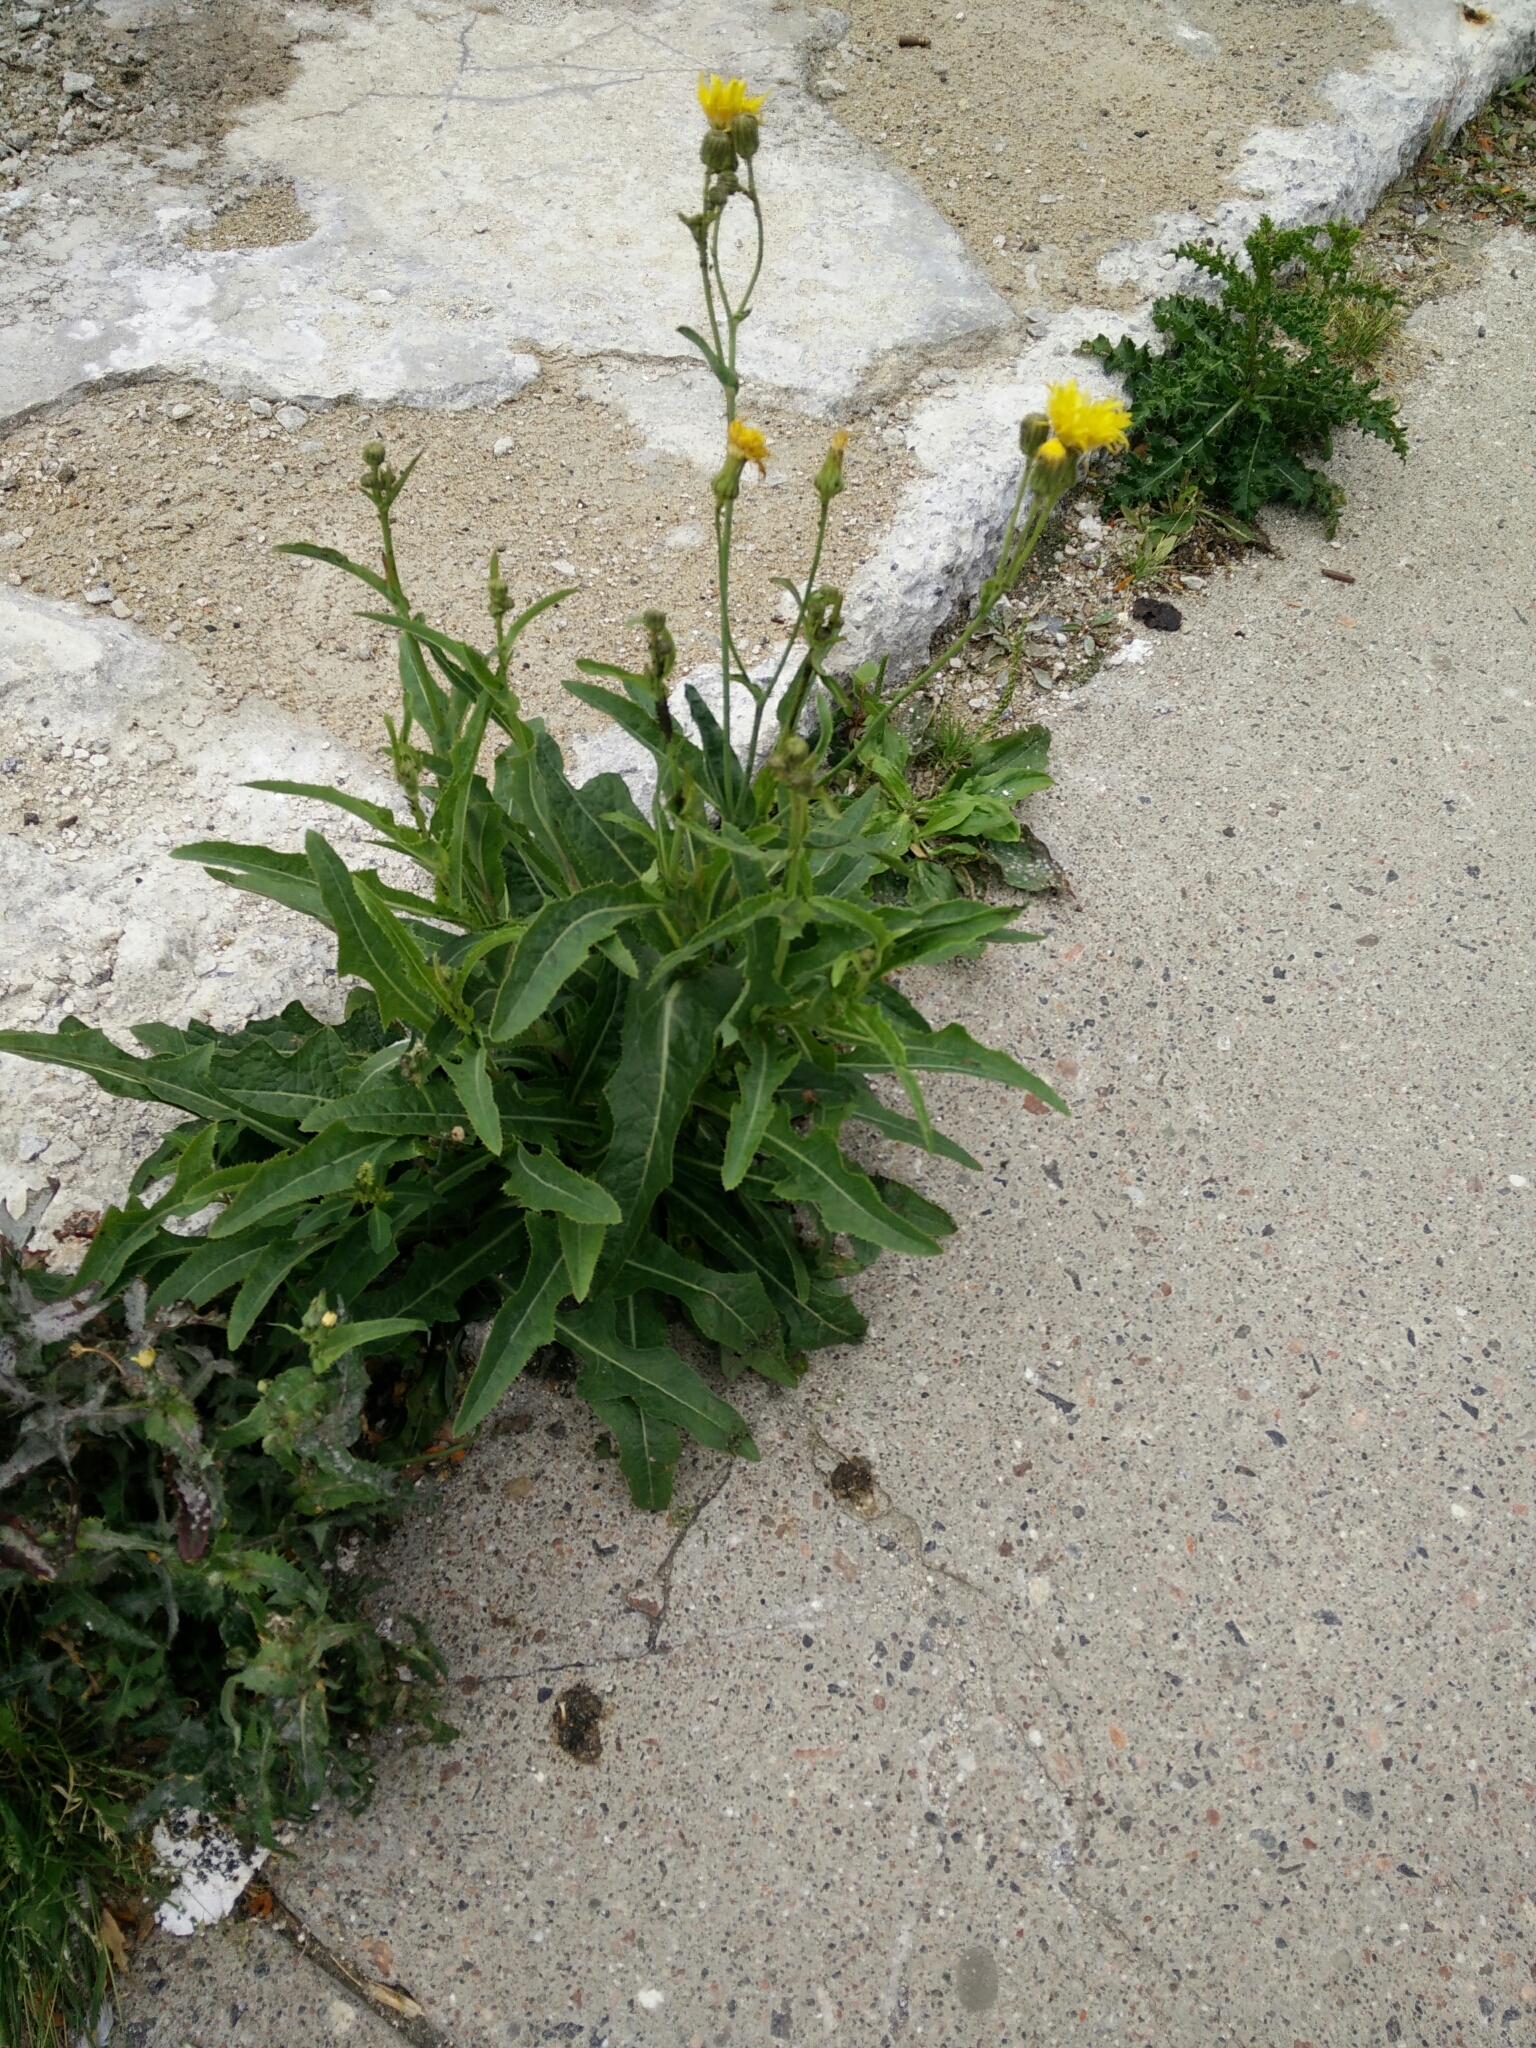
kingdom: Plantae
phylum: Tracheophyta
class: Magnoliopsida
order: Asterales
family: Asteraceae
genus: Sonchus
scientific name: Sonchus arvensis
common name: Perennial sow-thistle
